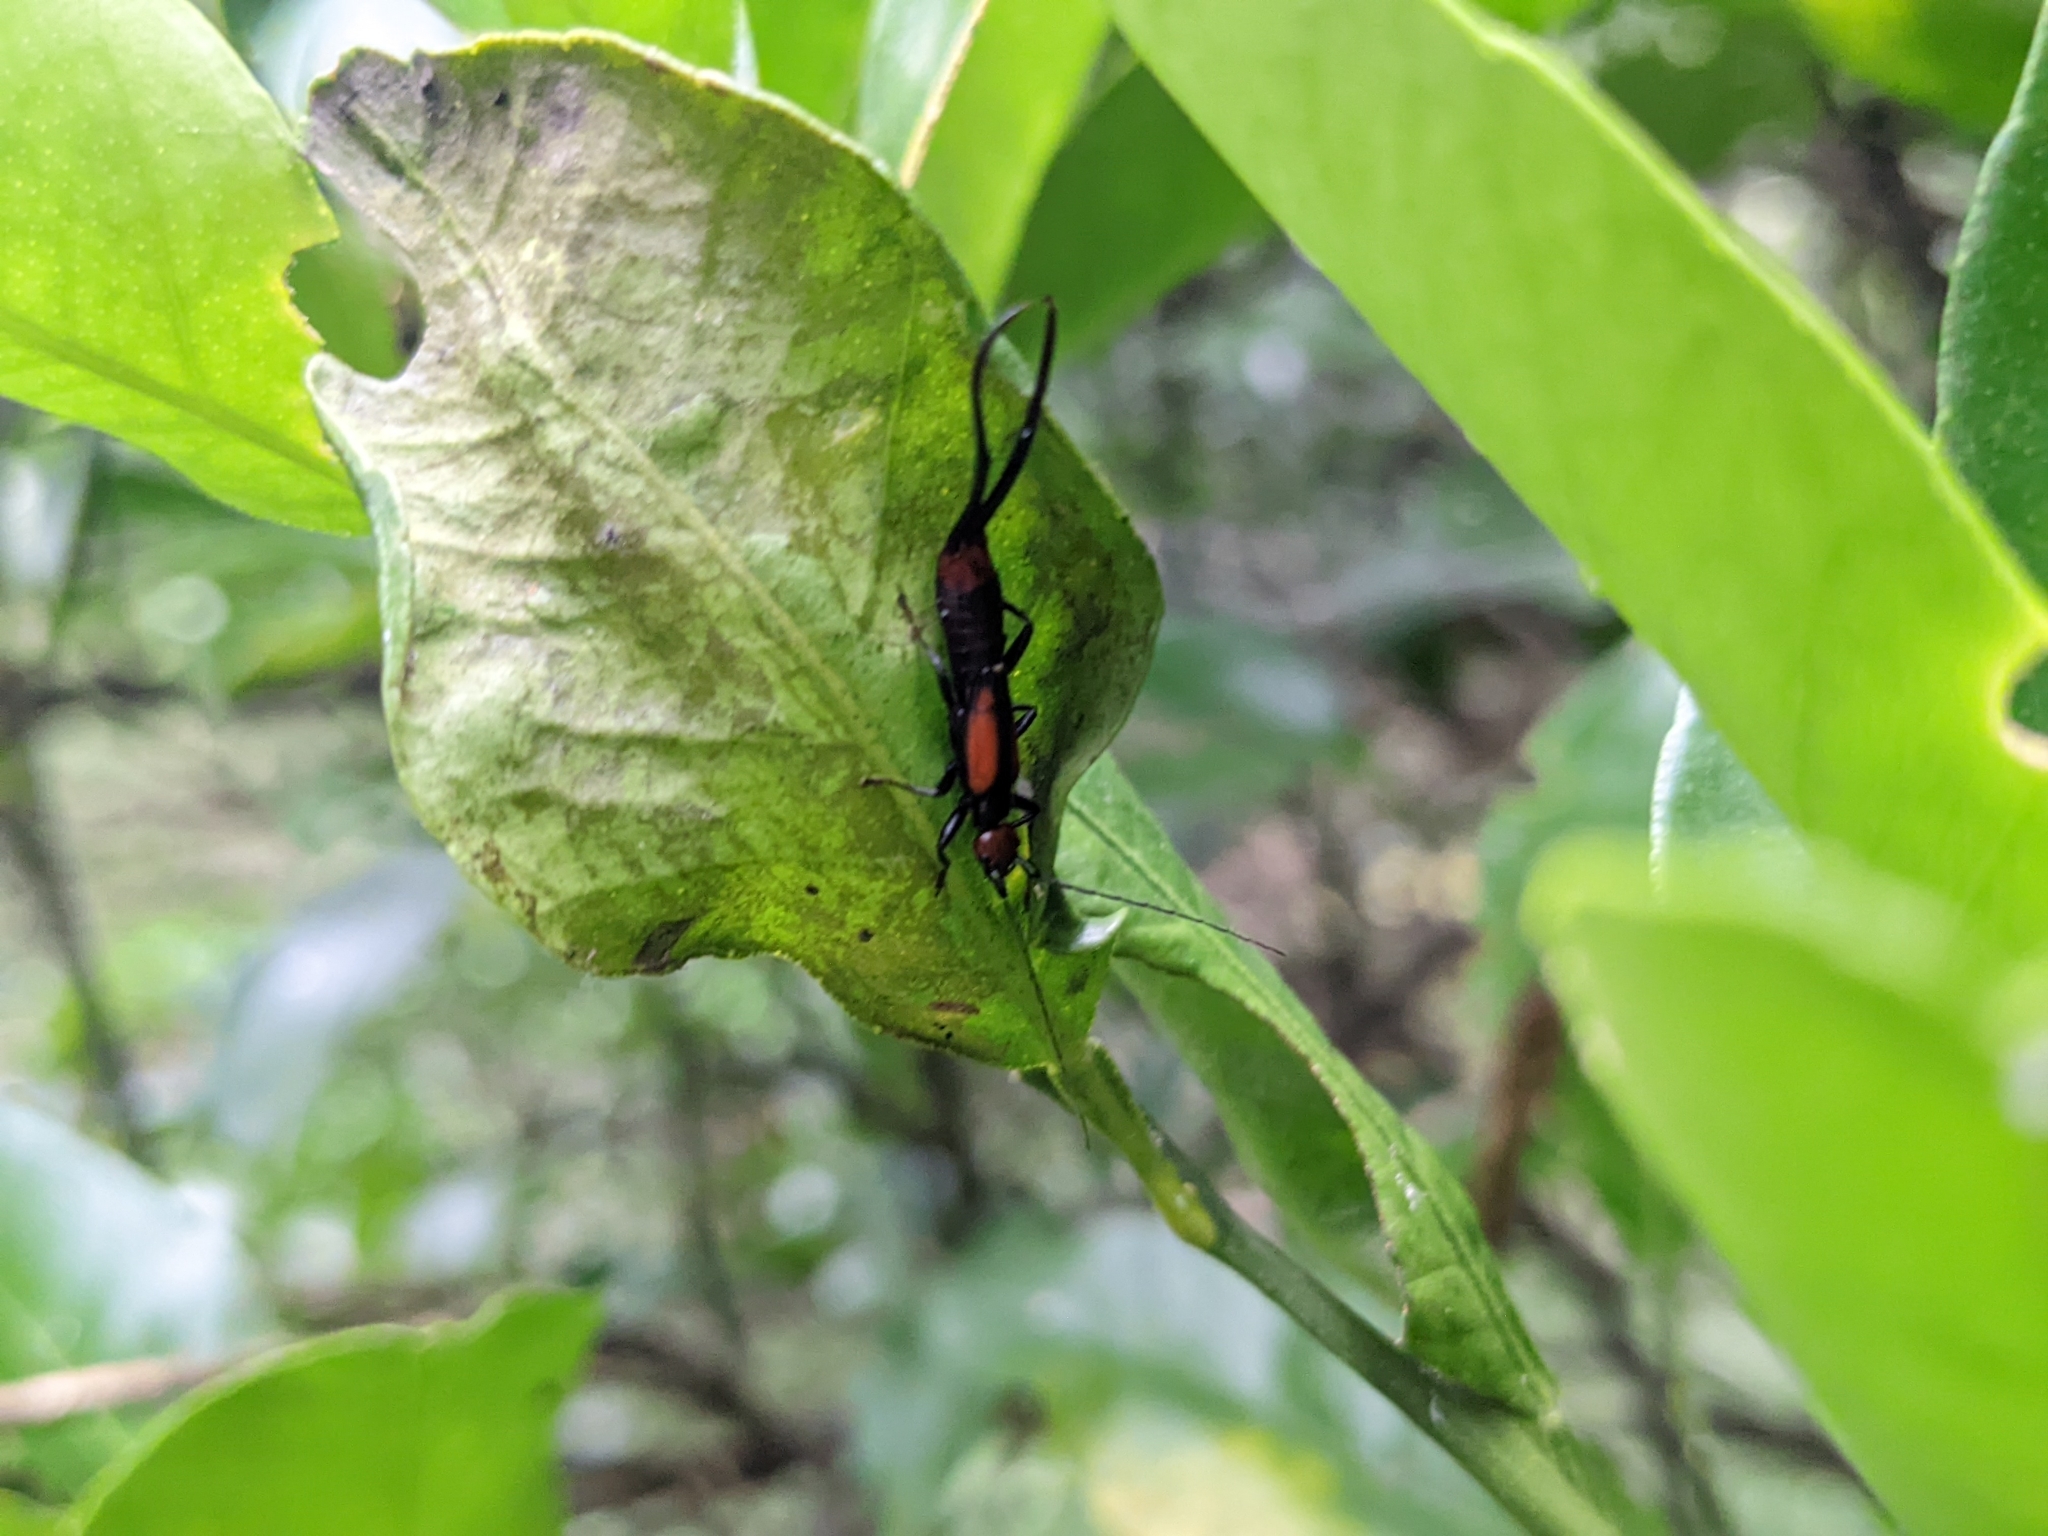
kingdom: Animalia
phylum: Arthropoda
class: Insecta
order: Dermaptera
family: Forficulidae
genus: Timomenus
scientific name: Timomenus komarovi
